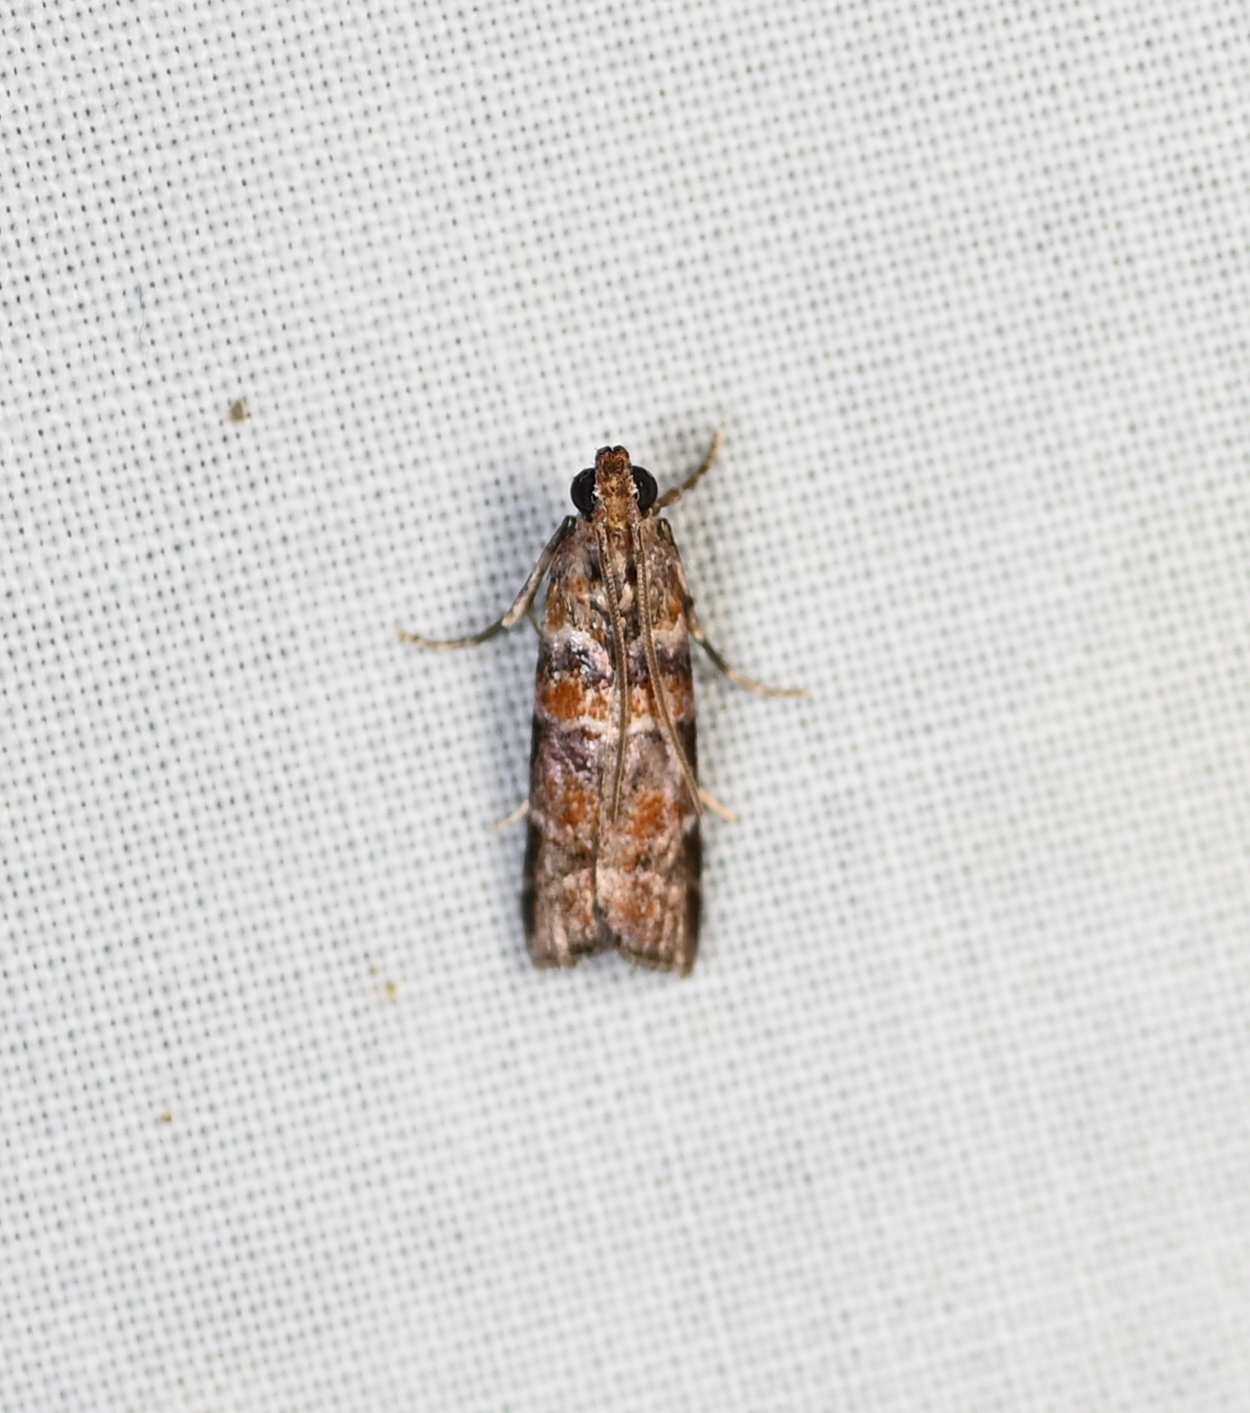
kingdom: Animalia
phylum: Arthropoda
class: Insecta
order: Lepidoptera
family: Pyralidae
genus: Dioryctria
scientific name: Dioryctria amatella
